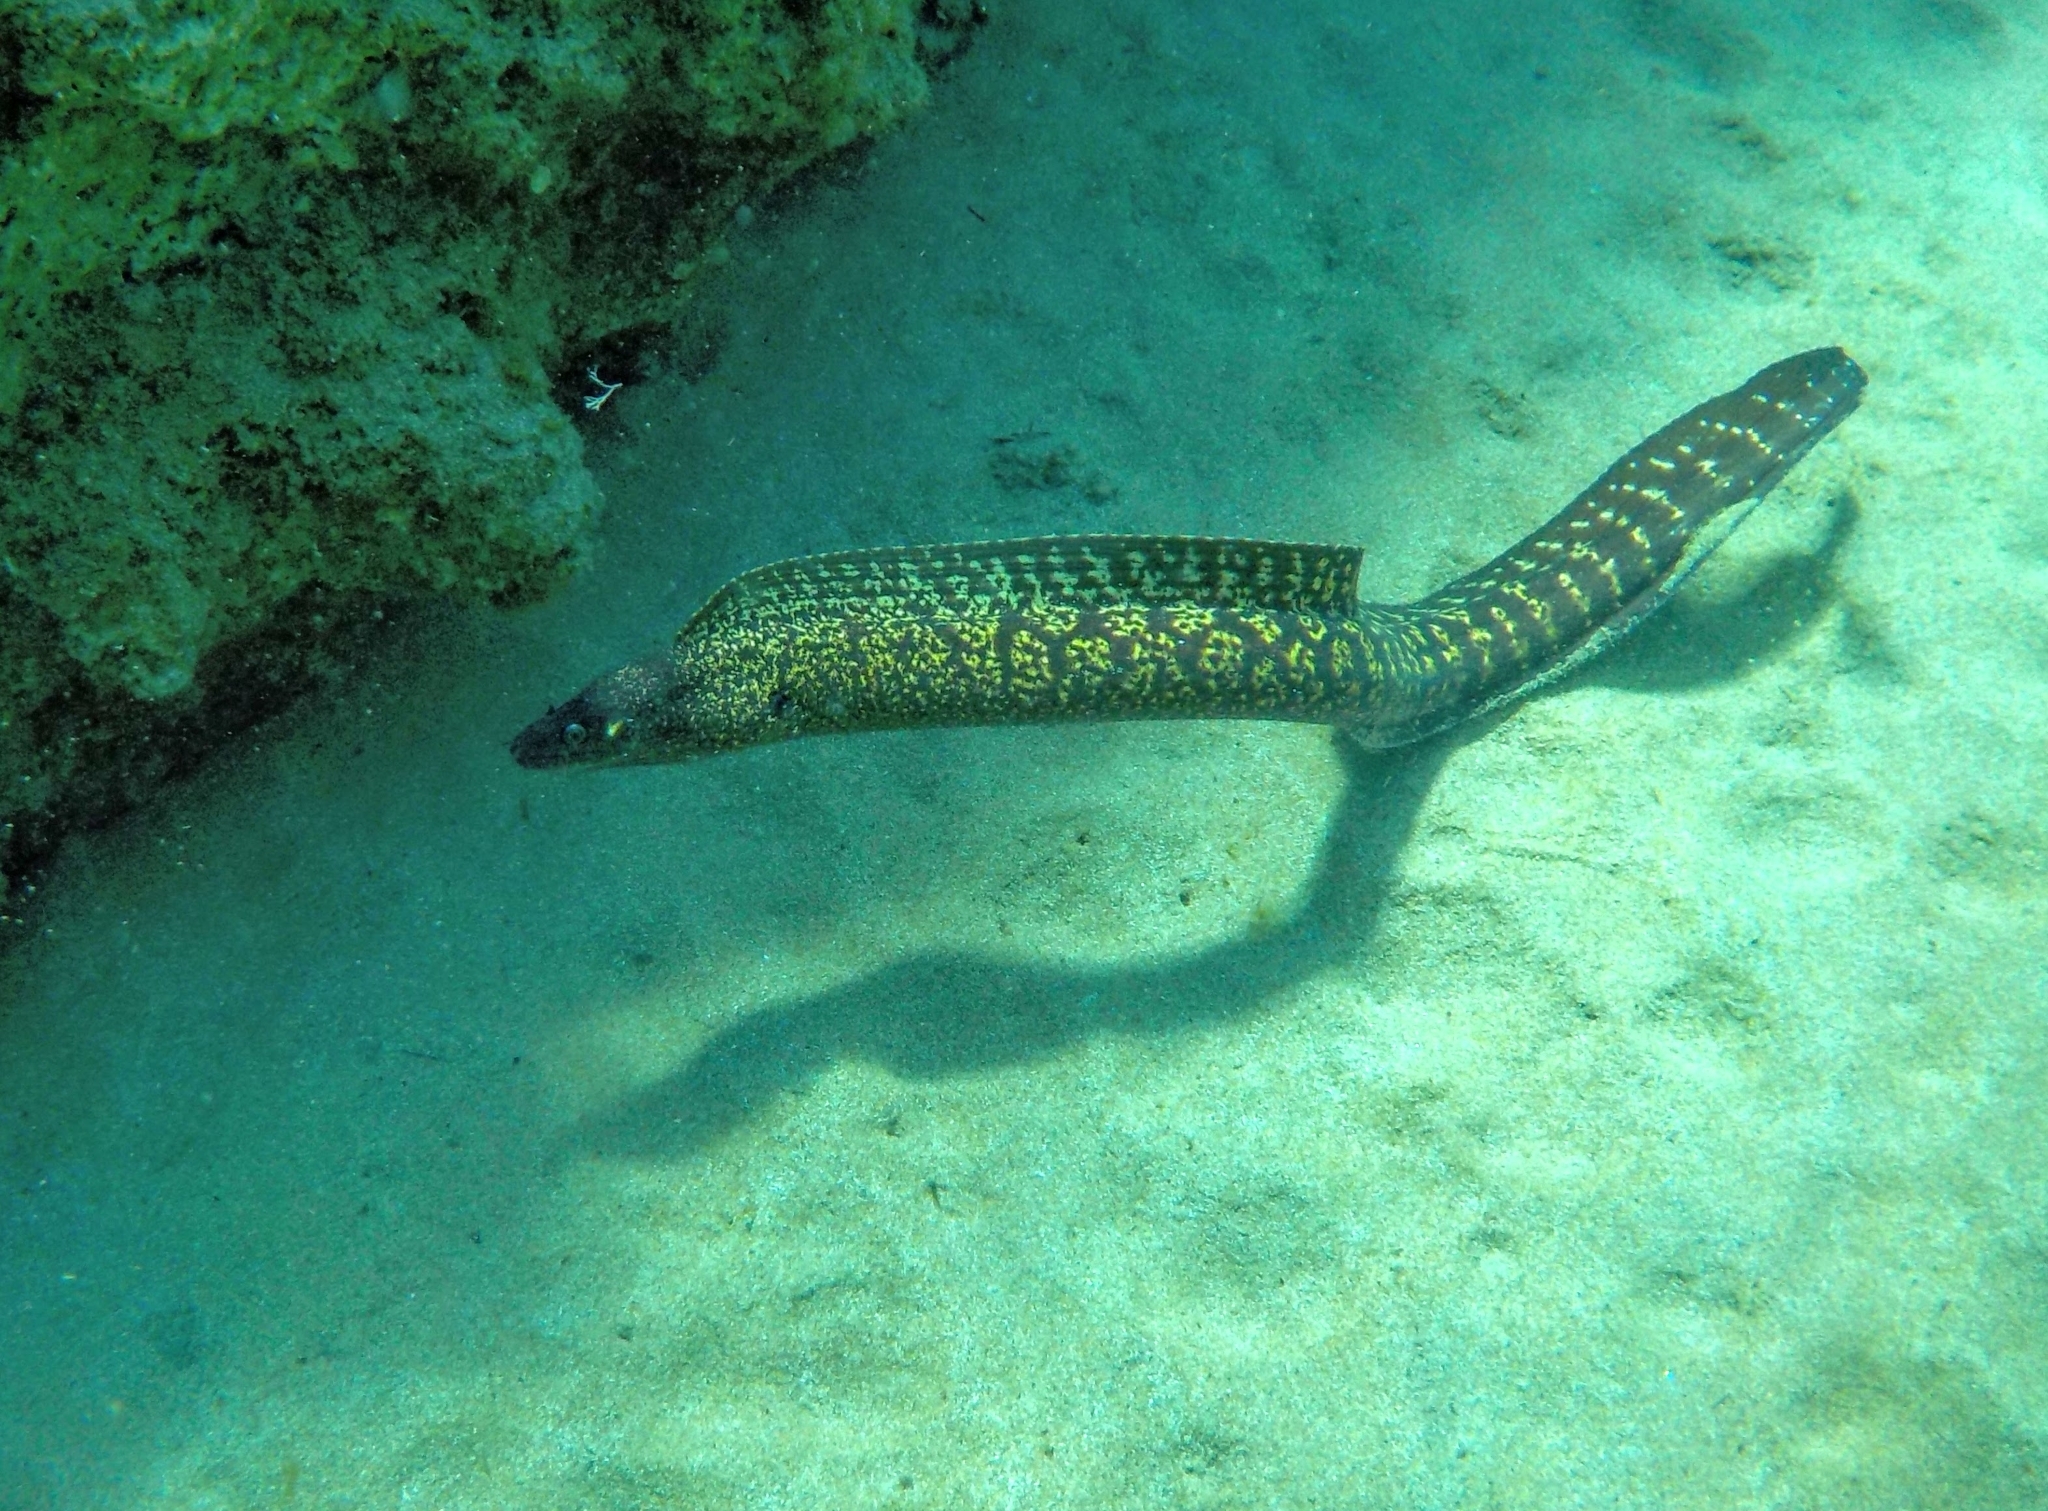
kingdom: Animalia
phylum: Chordata
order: Anguilliformes
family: Muraenidae
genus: Muraena
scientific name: Muraena helena
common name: Mediterranean moray
